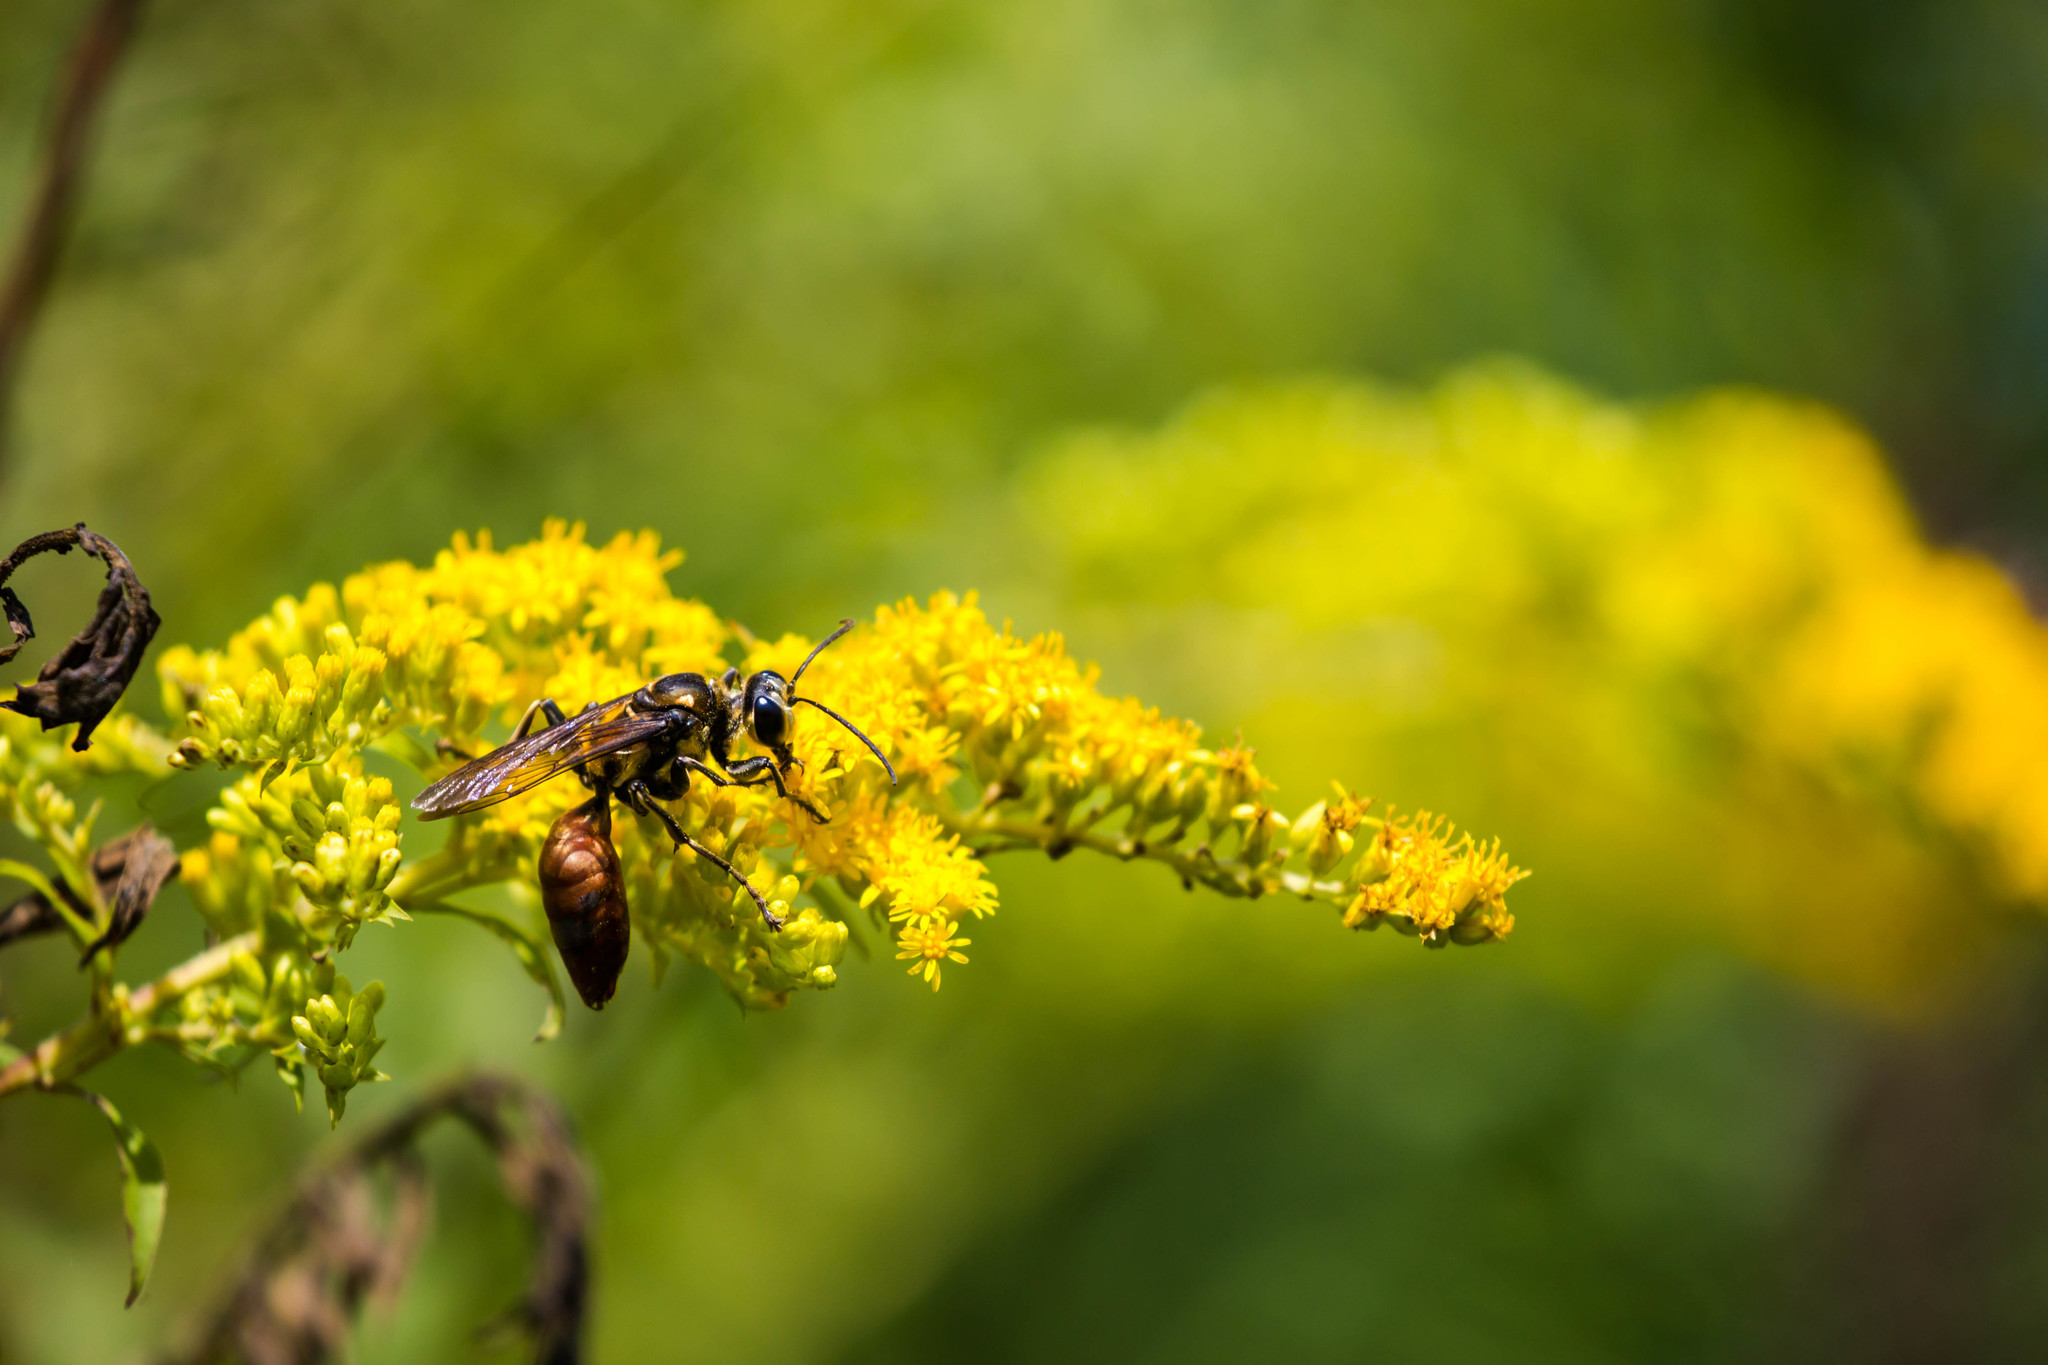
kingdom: Animalia
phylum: Arthropoda
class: Insecta
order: Hymenoptera
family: Sphecidae
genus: Sphex
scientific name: Sphex habenus
